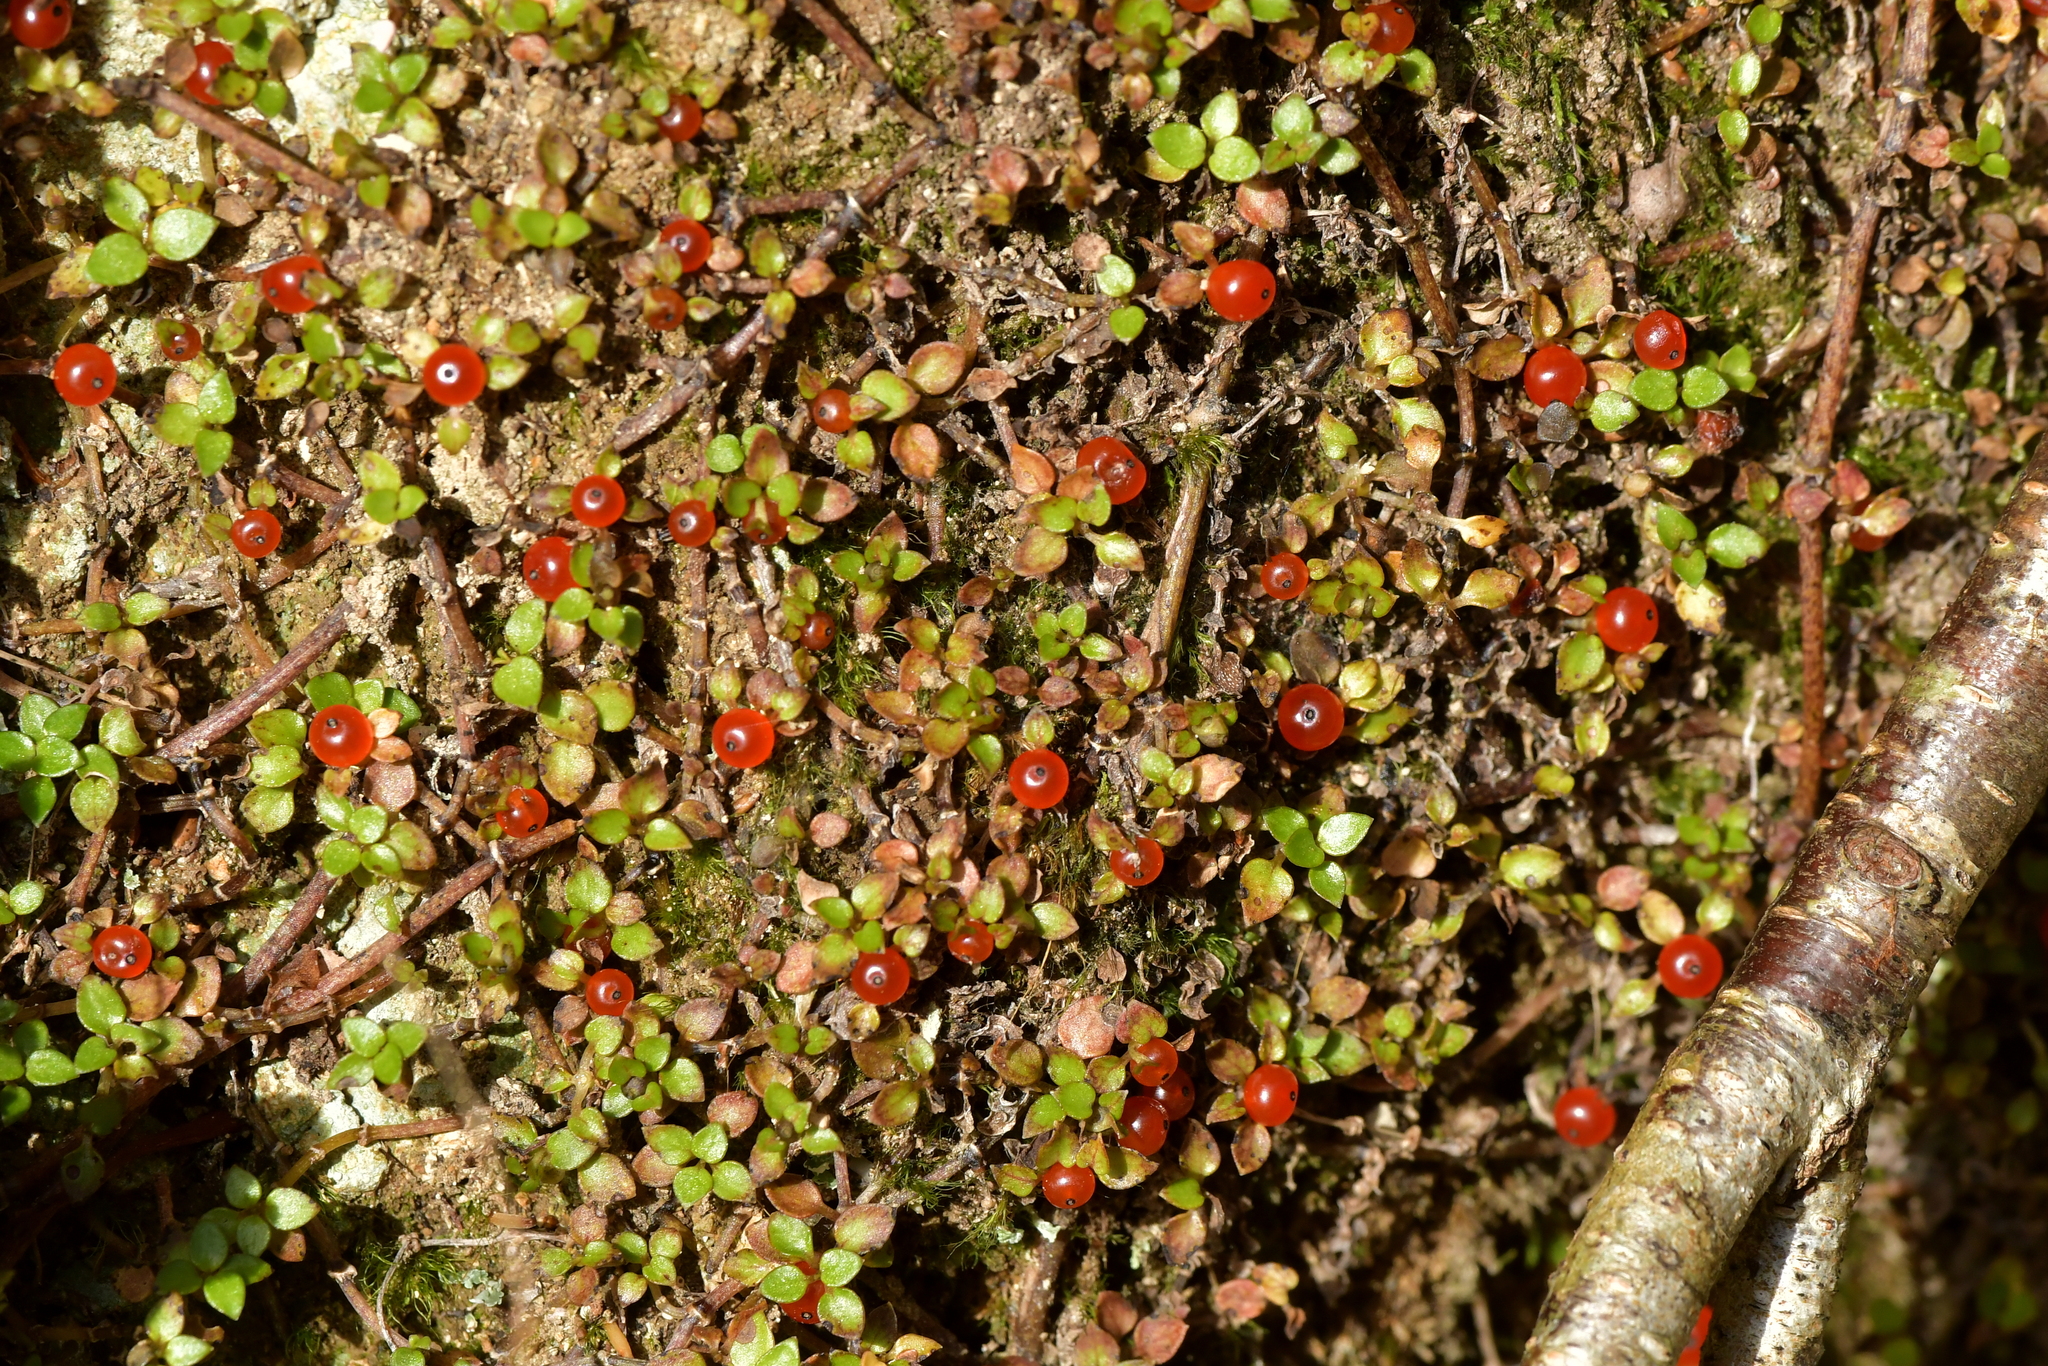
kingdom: Plantae
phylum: Tracheophyta
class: Magnoliopsida
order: Gentianales
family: Rubiaceae
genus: Nertera
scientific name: Nertera granadensis
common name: Beadplant
